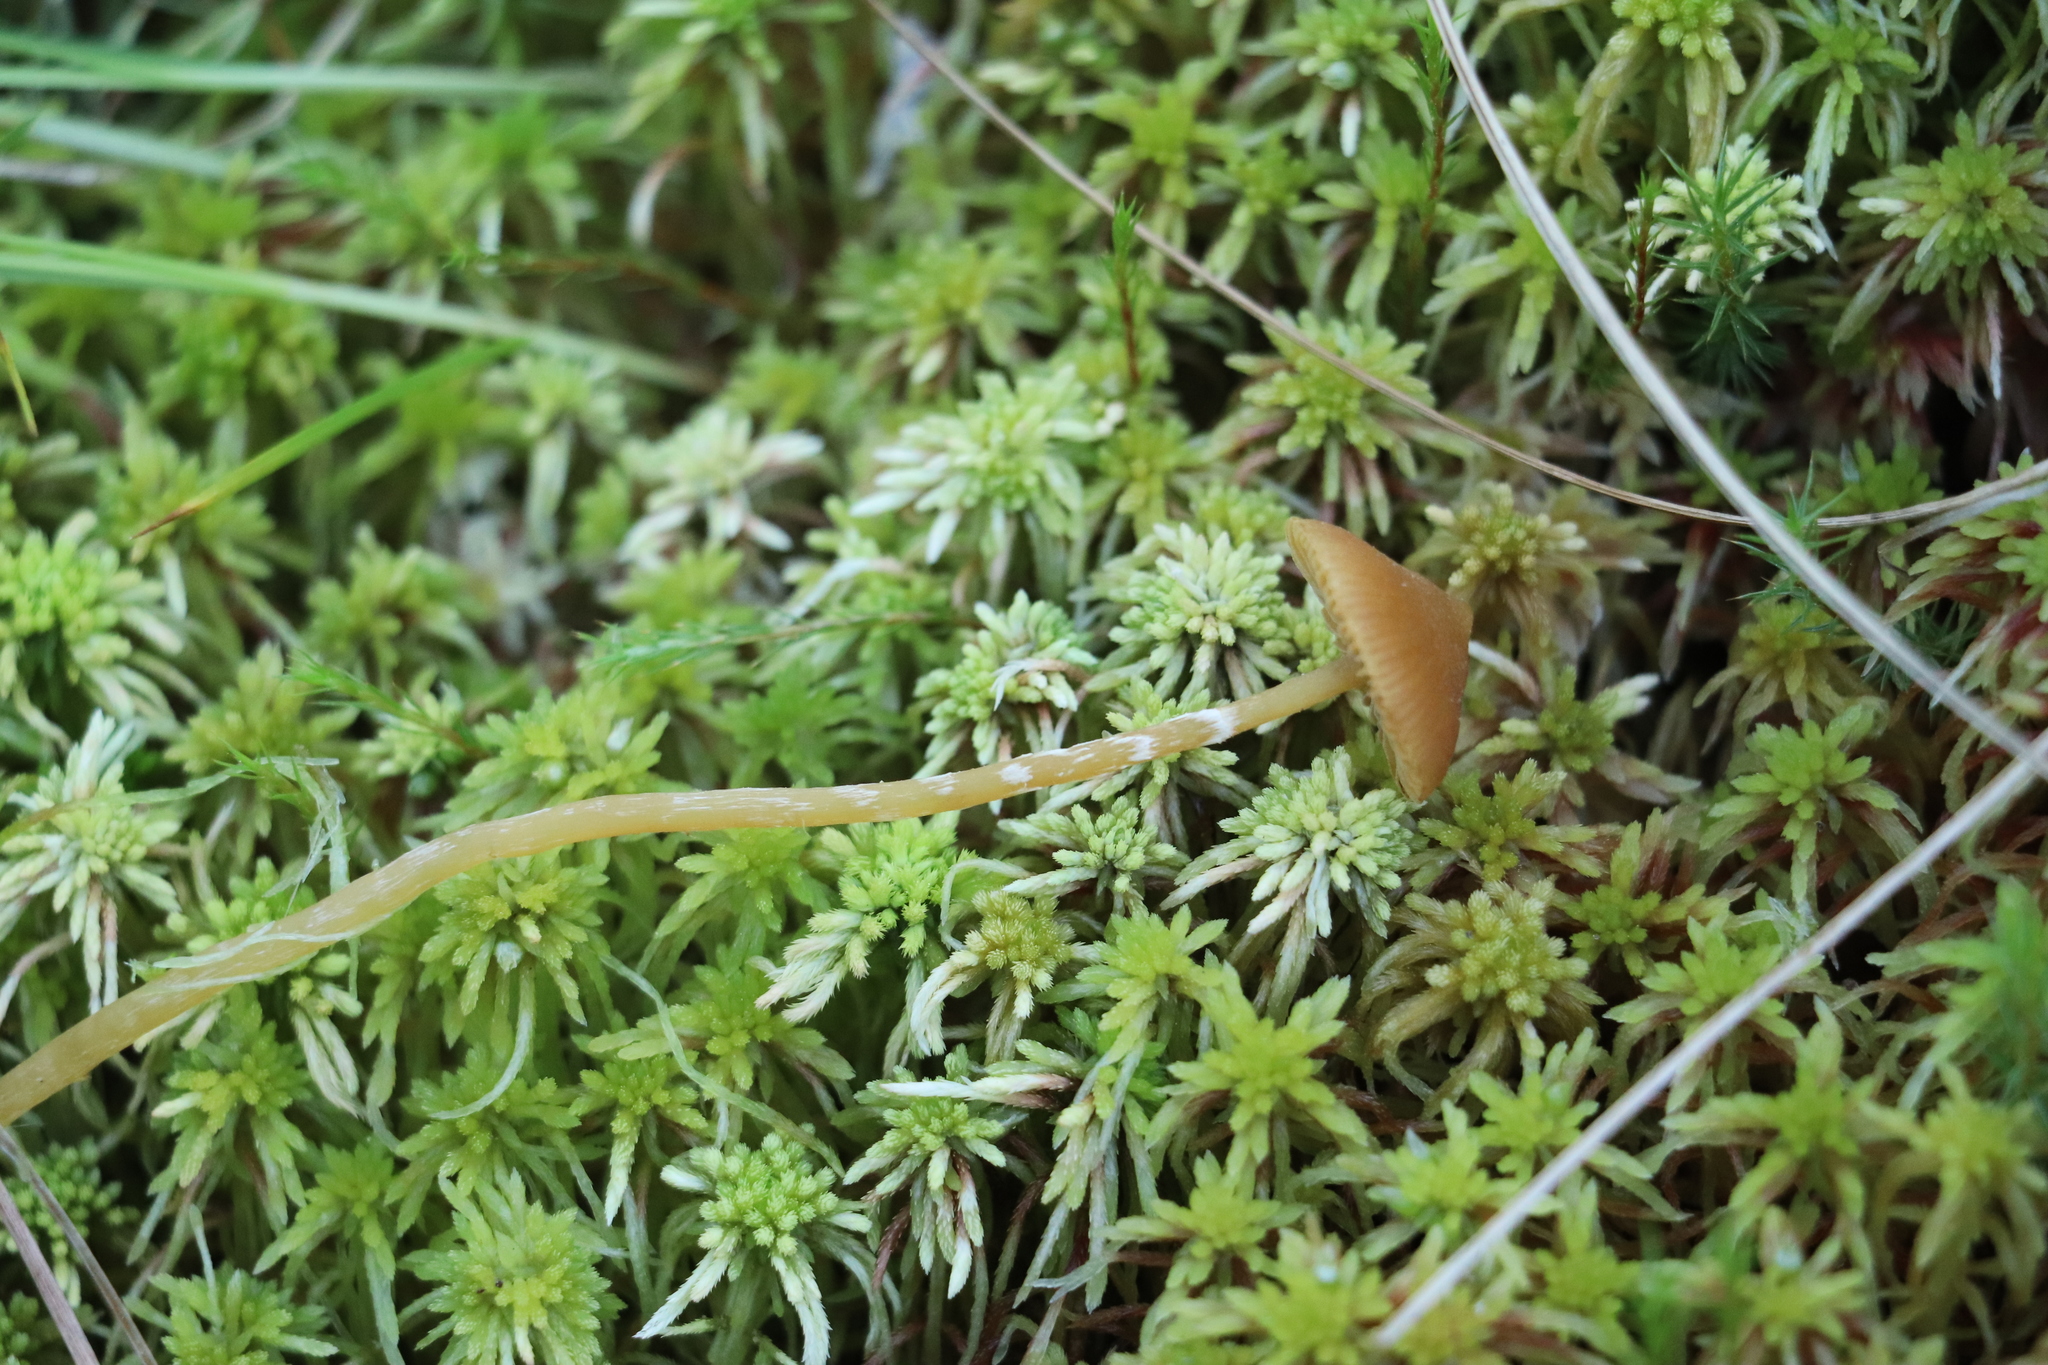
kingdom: Fungi
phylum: Basidiomycota
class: Agaricomycetes
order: Agaricales
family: Hymenogastraceae
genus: Galerina
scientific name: Galerina paludosa
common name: Bog bell
